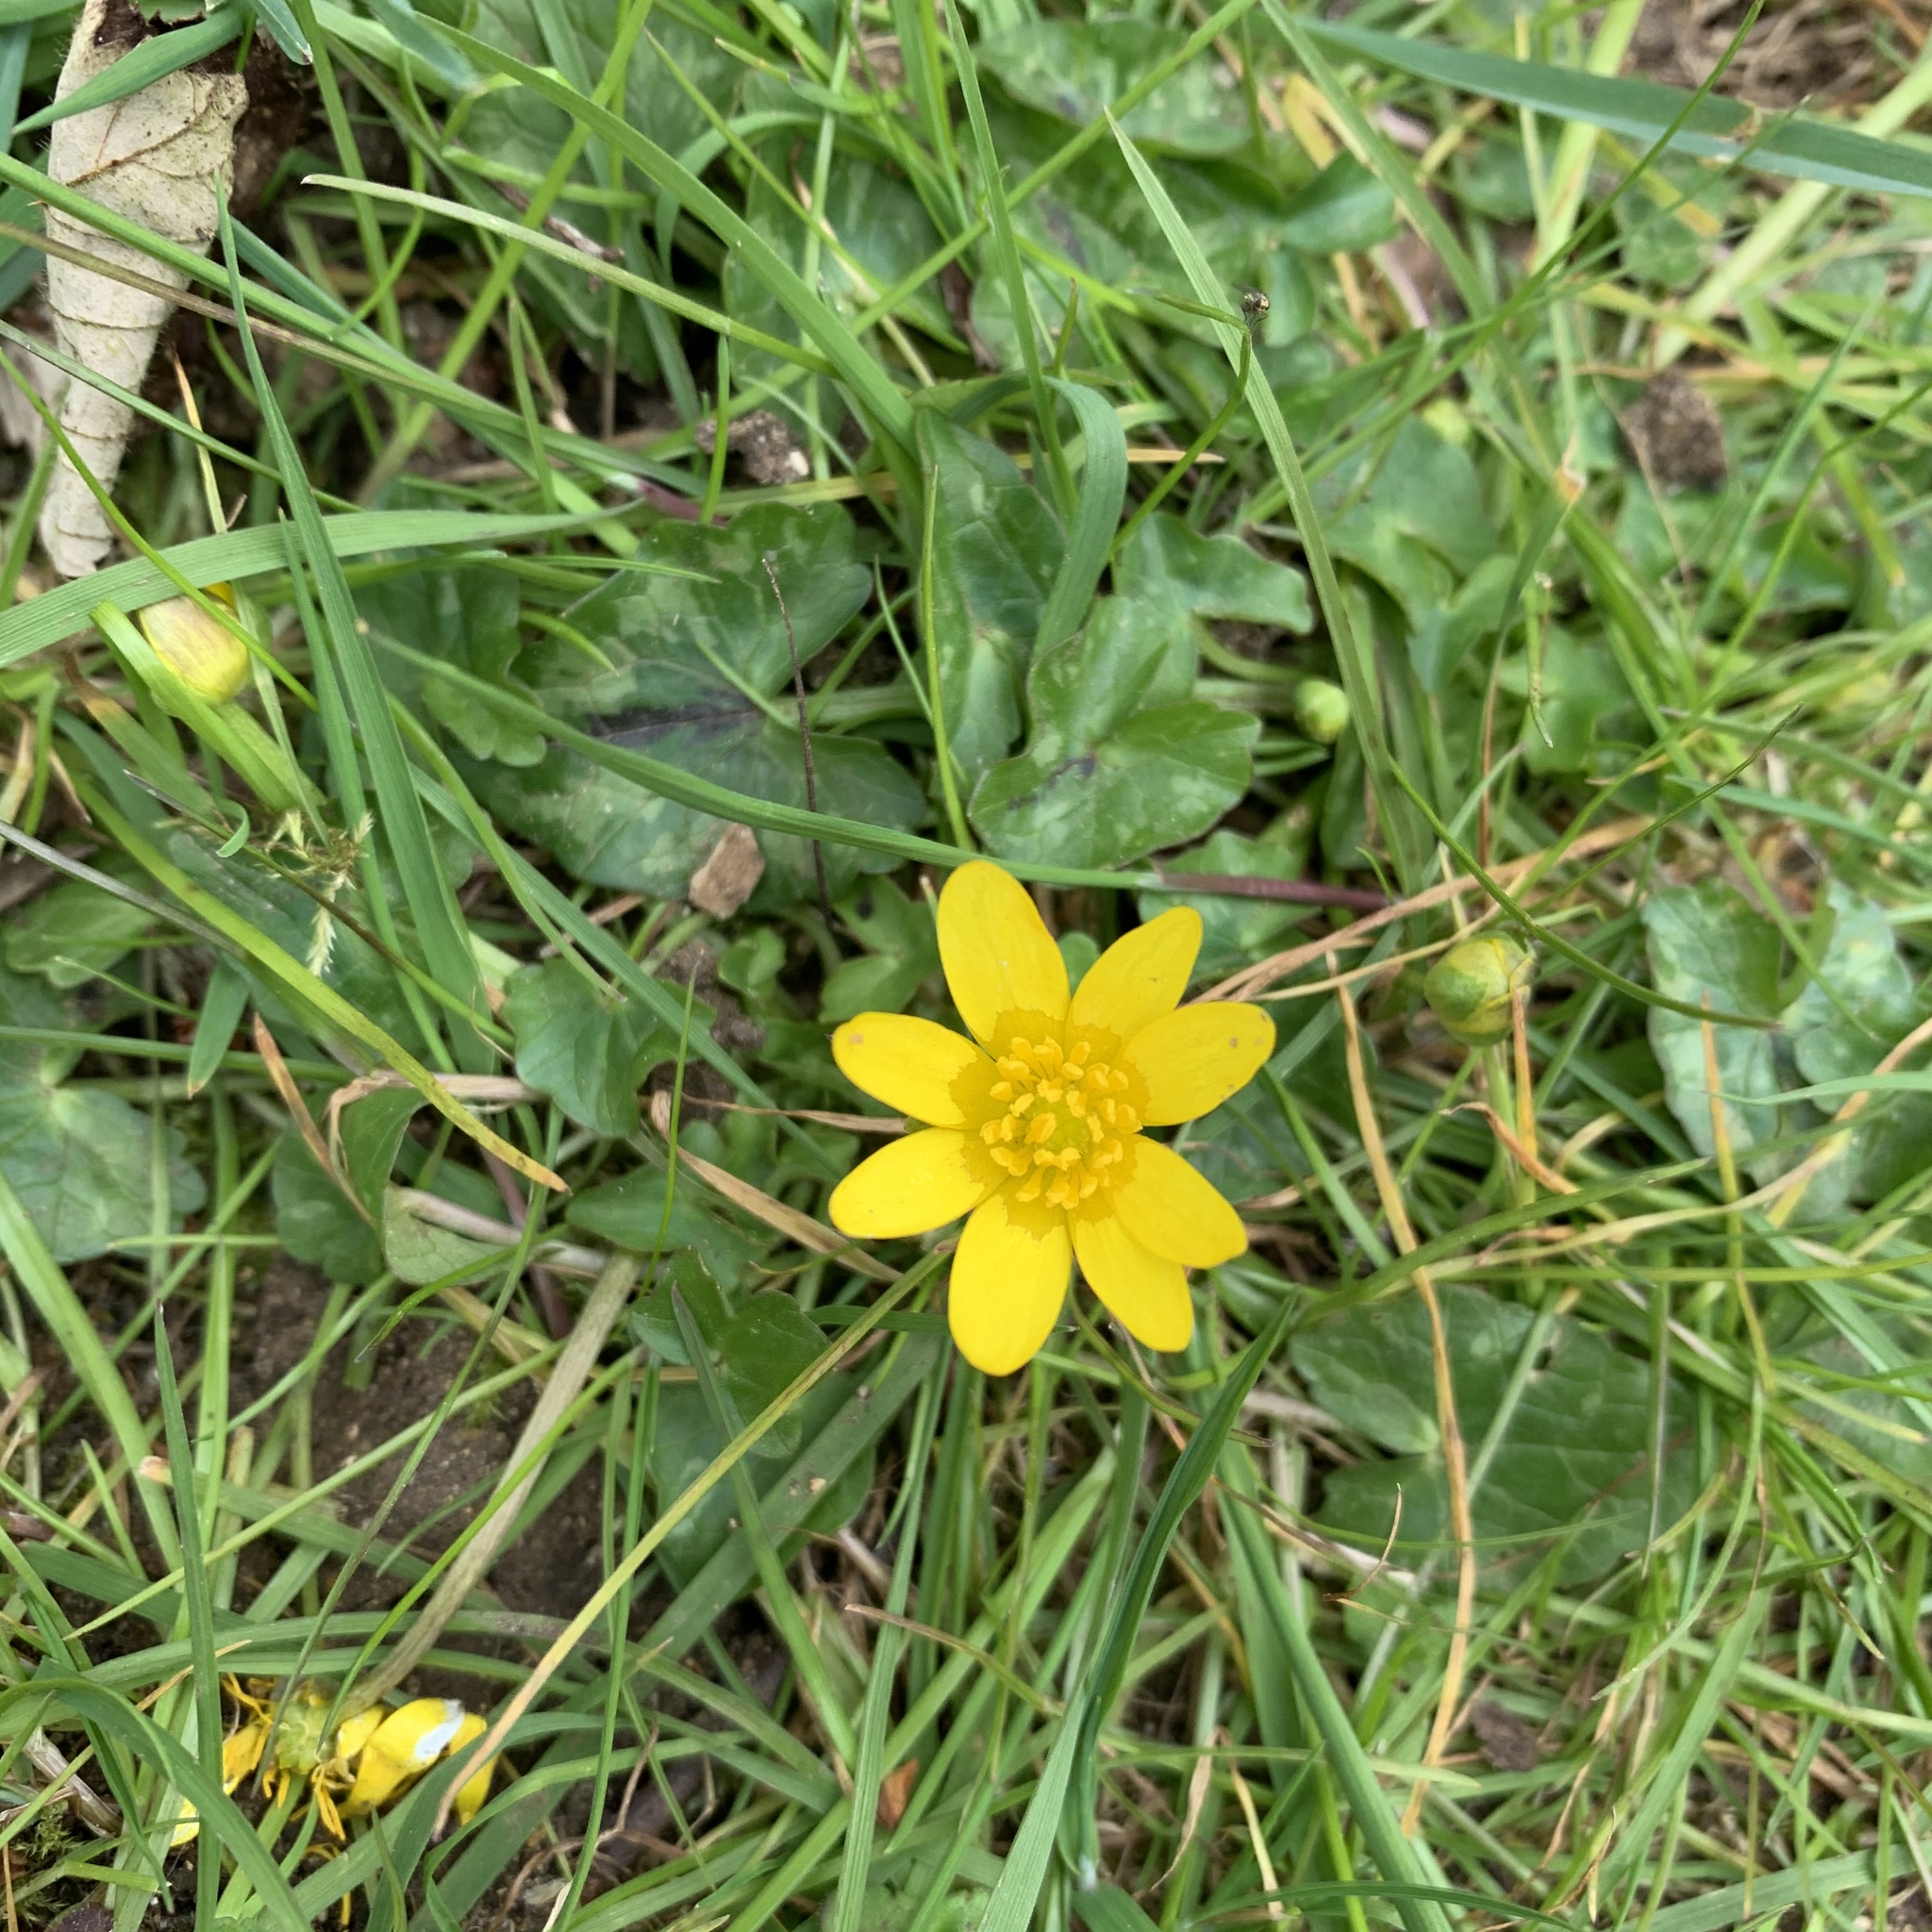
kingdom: Plantae
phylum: Tracheophyta
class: Magnoliopsida
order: Ranunculales
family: Ranunculaceae
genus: Ficaria
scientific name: Ficaria verna
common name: Lesser celandine
